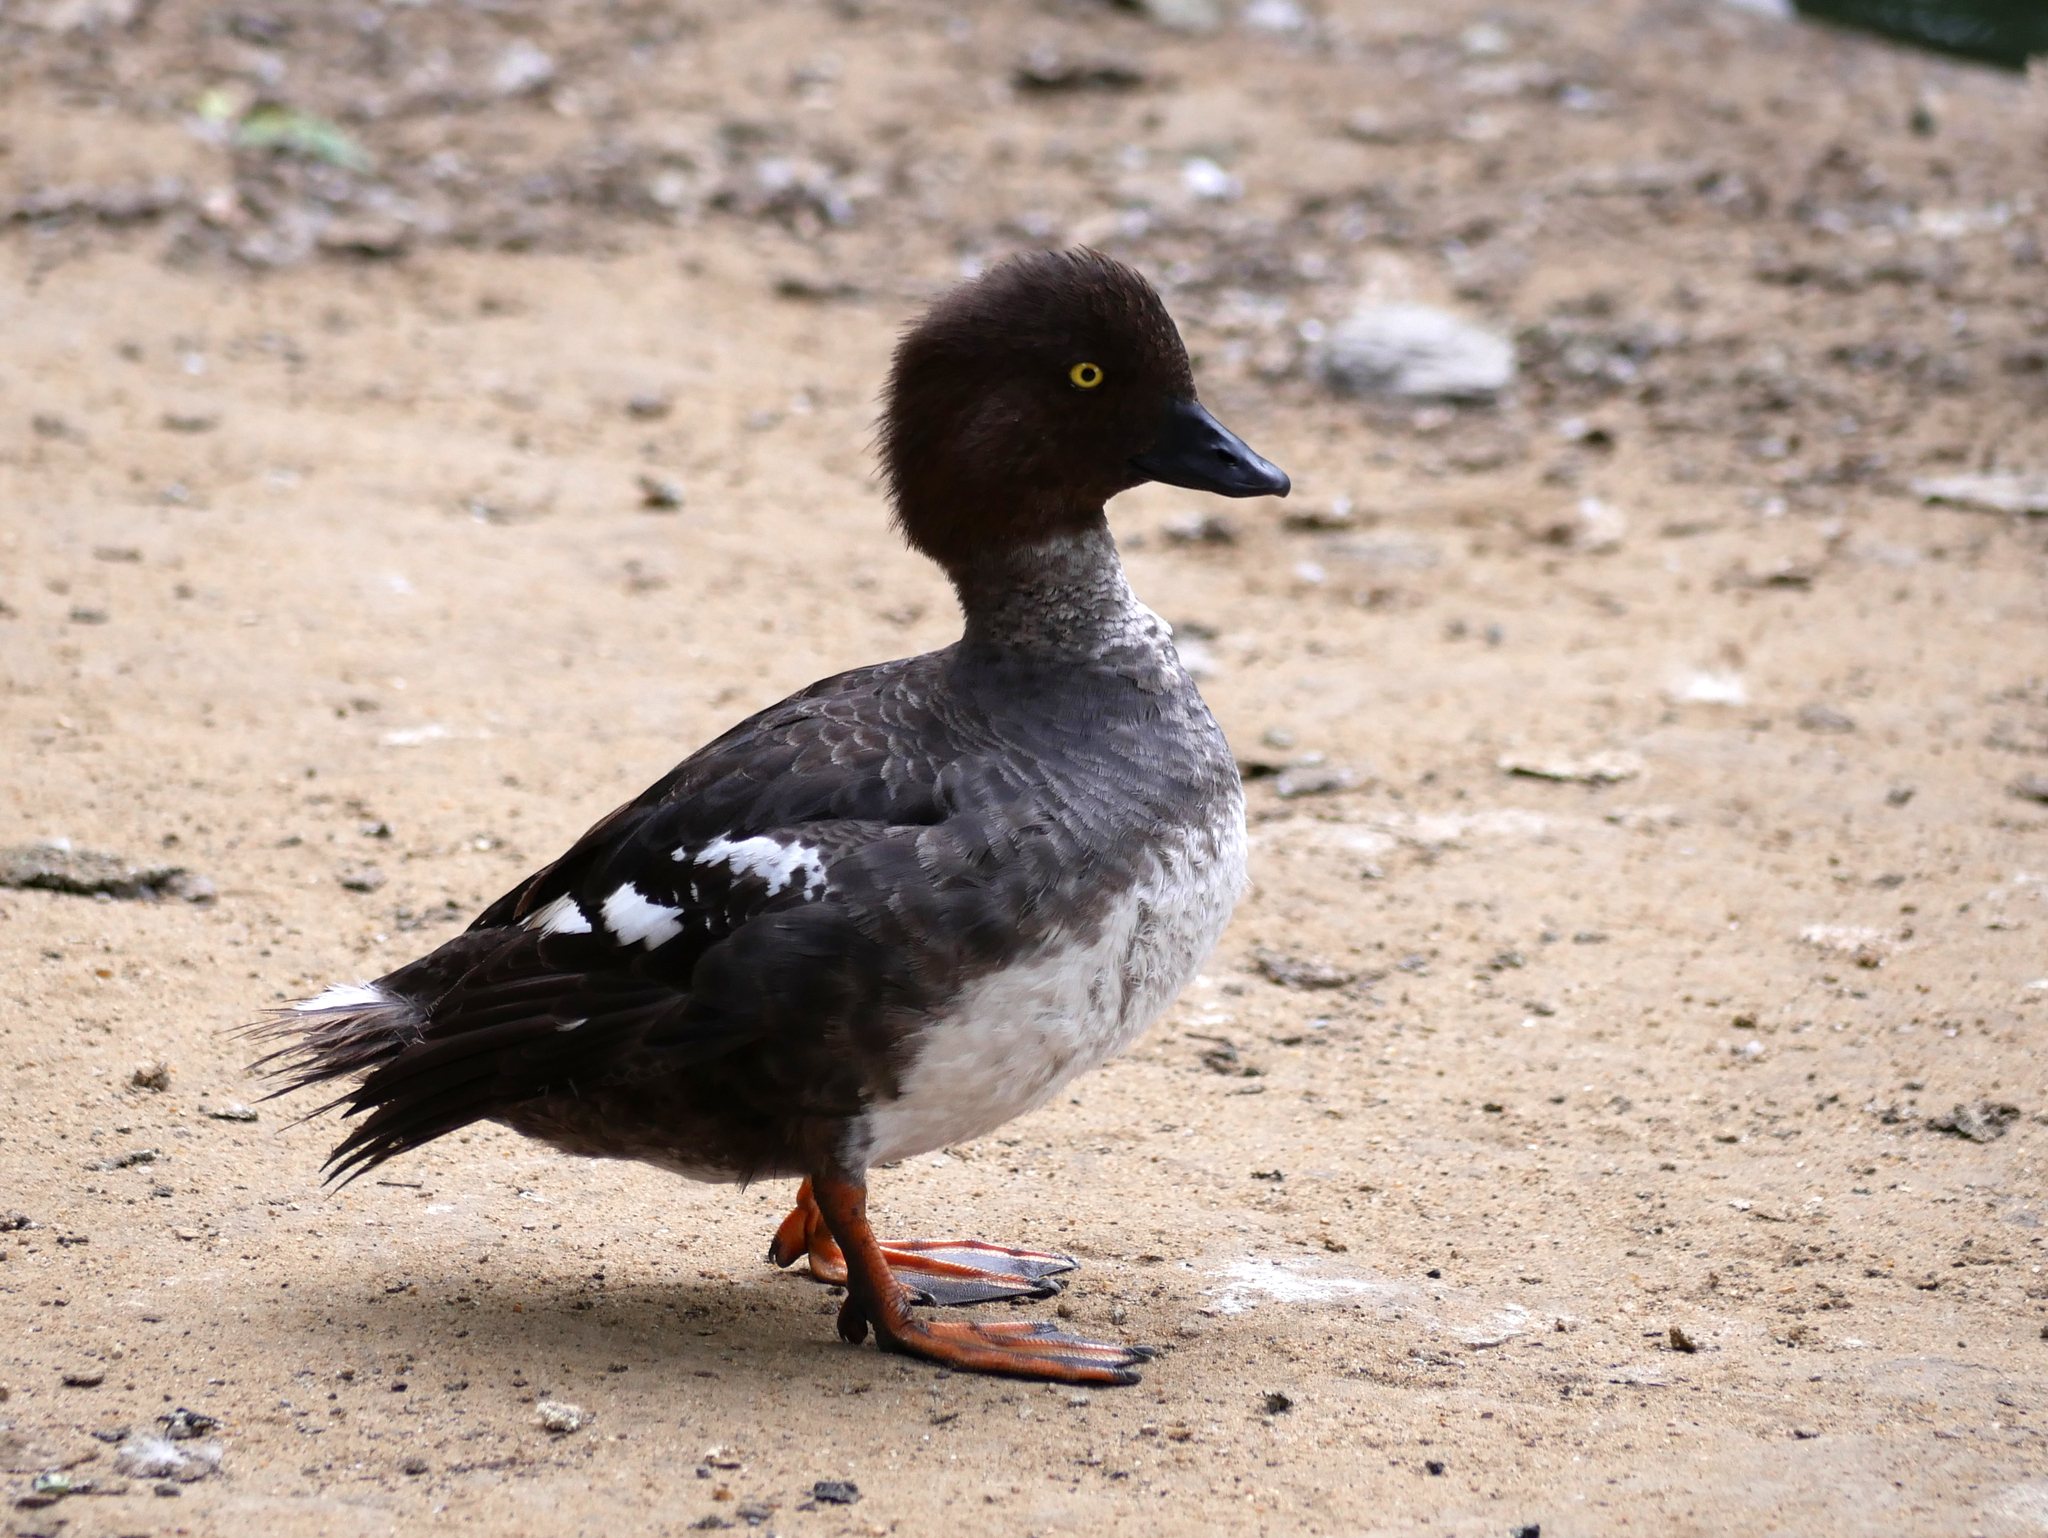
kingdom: Animalia
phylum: Chordata
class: Aves
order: Anseriformes
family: Anatidae
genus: Bucephala
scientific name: Bucephala clangula
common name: Common goldeneye
